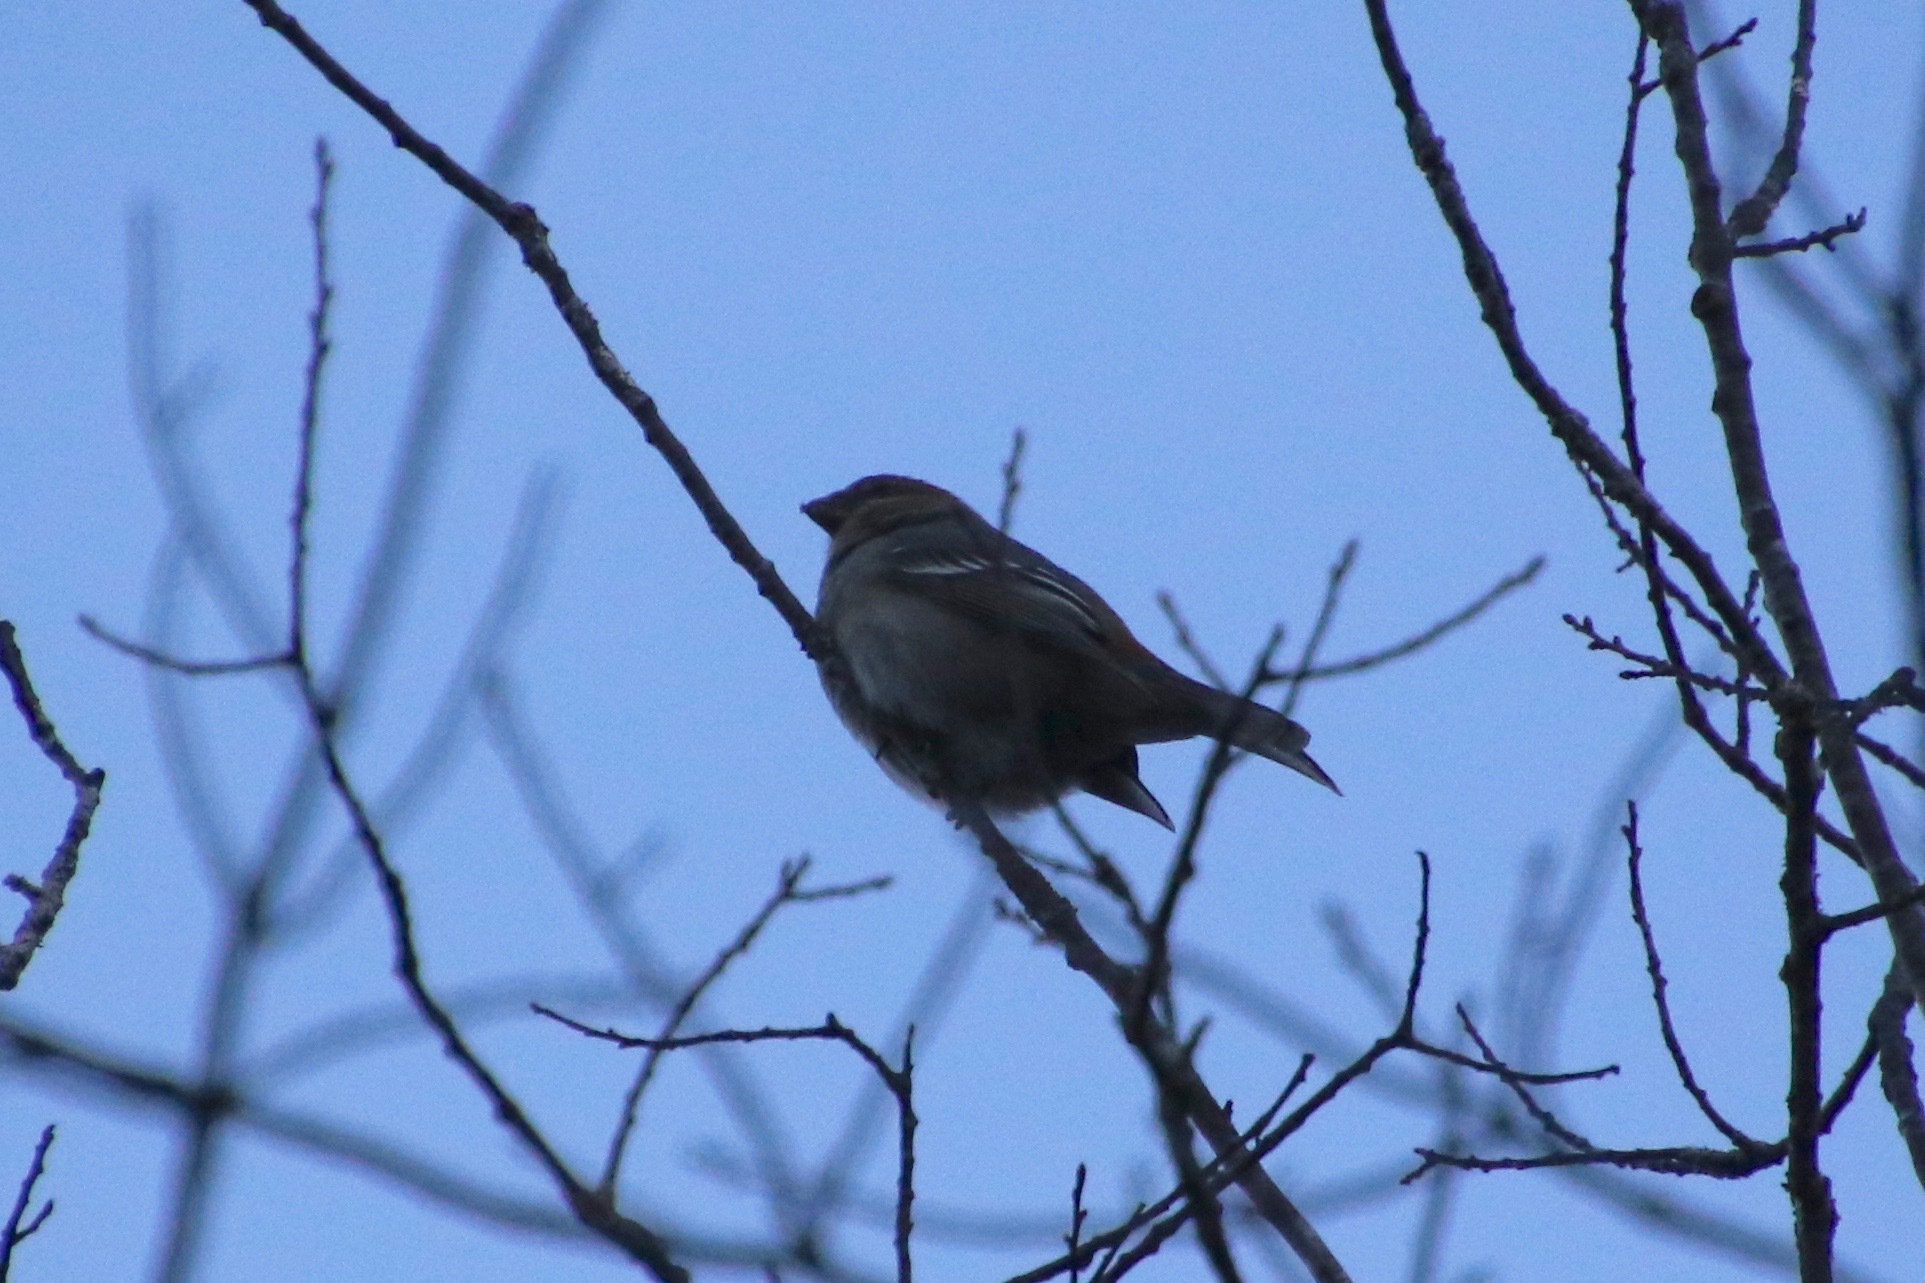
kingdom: Animalia
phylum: Chordata
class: Aves
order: Passeriformes
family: Fringillidae
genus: Pinicola
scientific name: Pinicola enucleator
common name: Pine grosbeak
